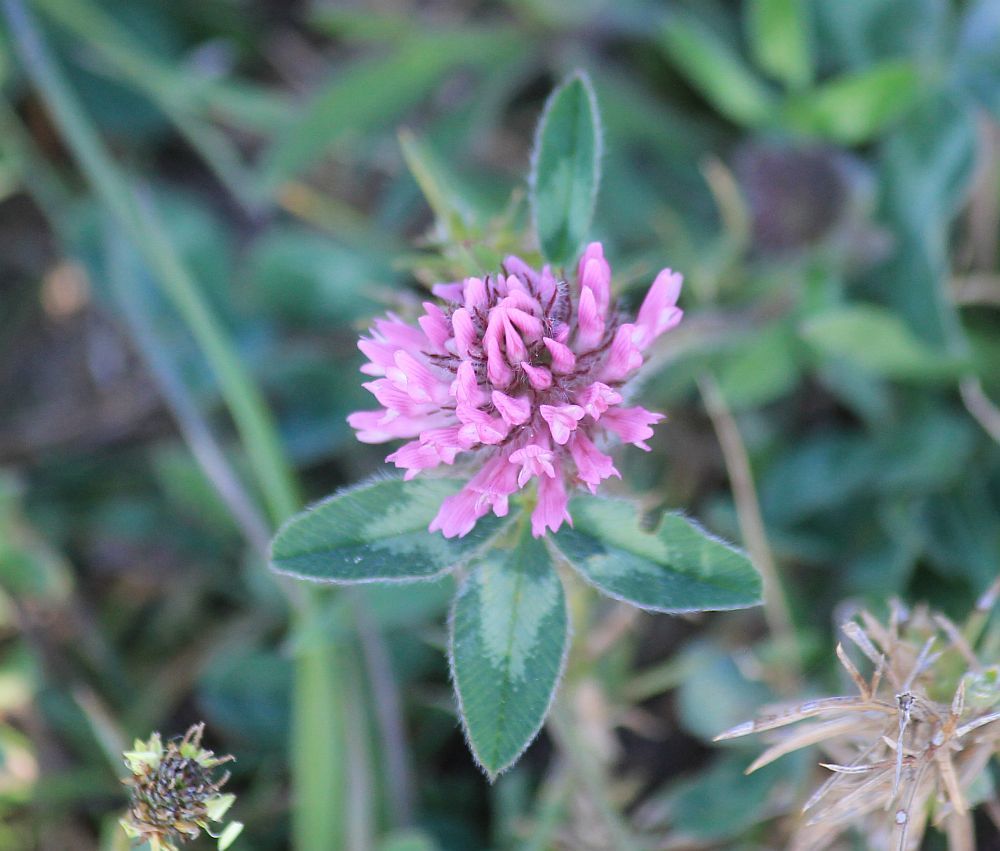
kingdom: Plantae
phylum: Tracheophyta
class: Magnoliopsida
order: Fabales
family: Fabaceae
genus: Trifolium
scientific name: Trifolium pratense
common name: Red clover
